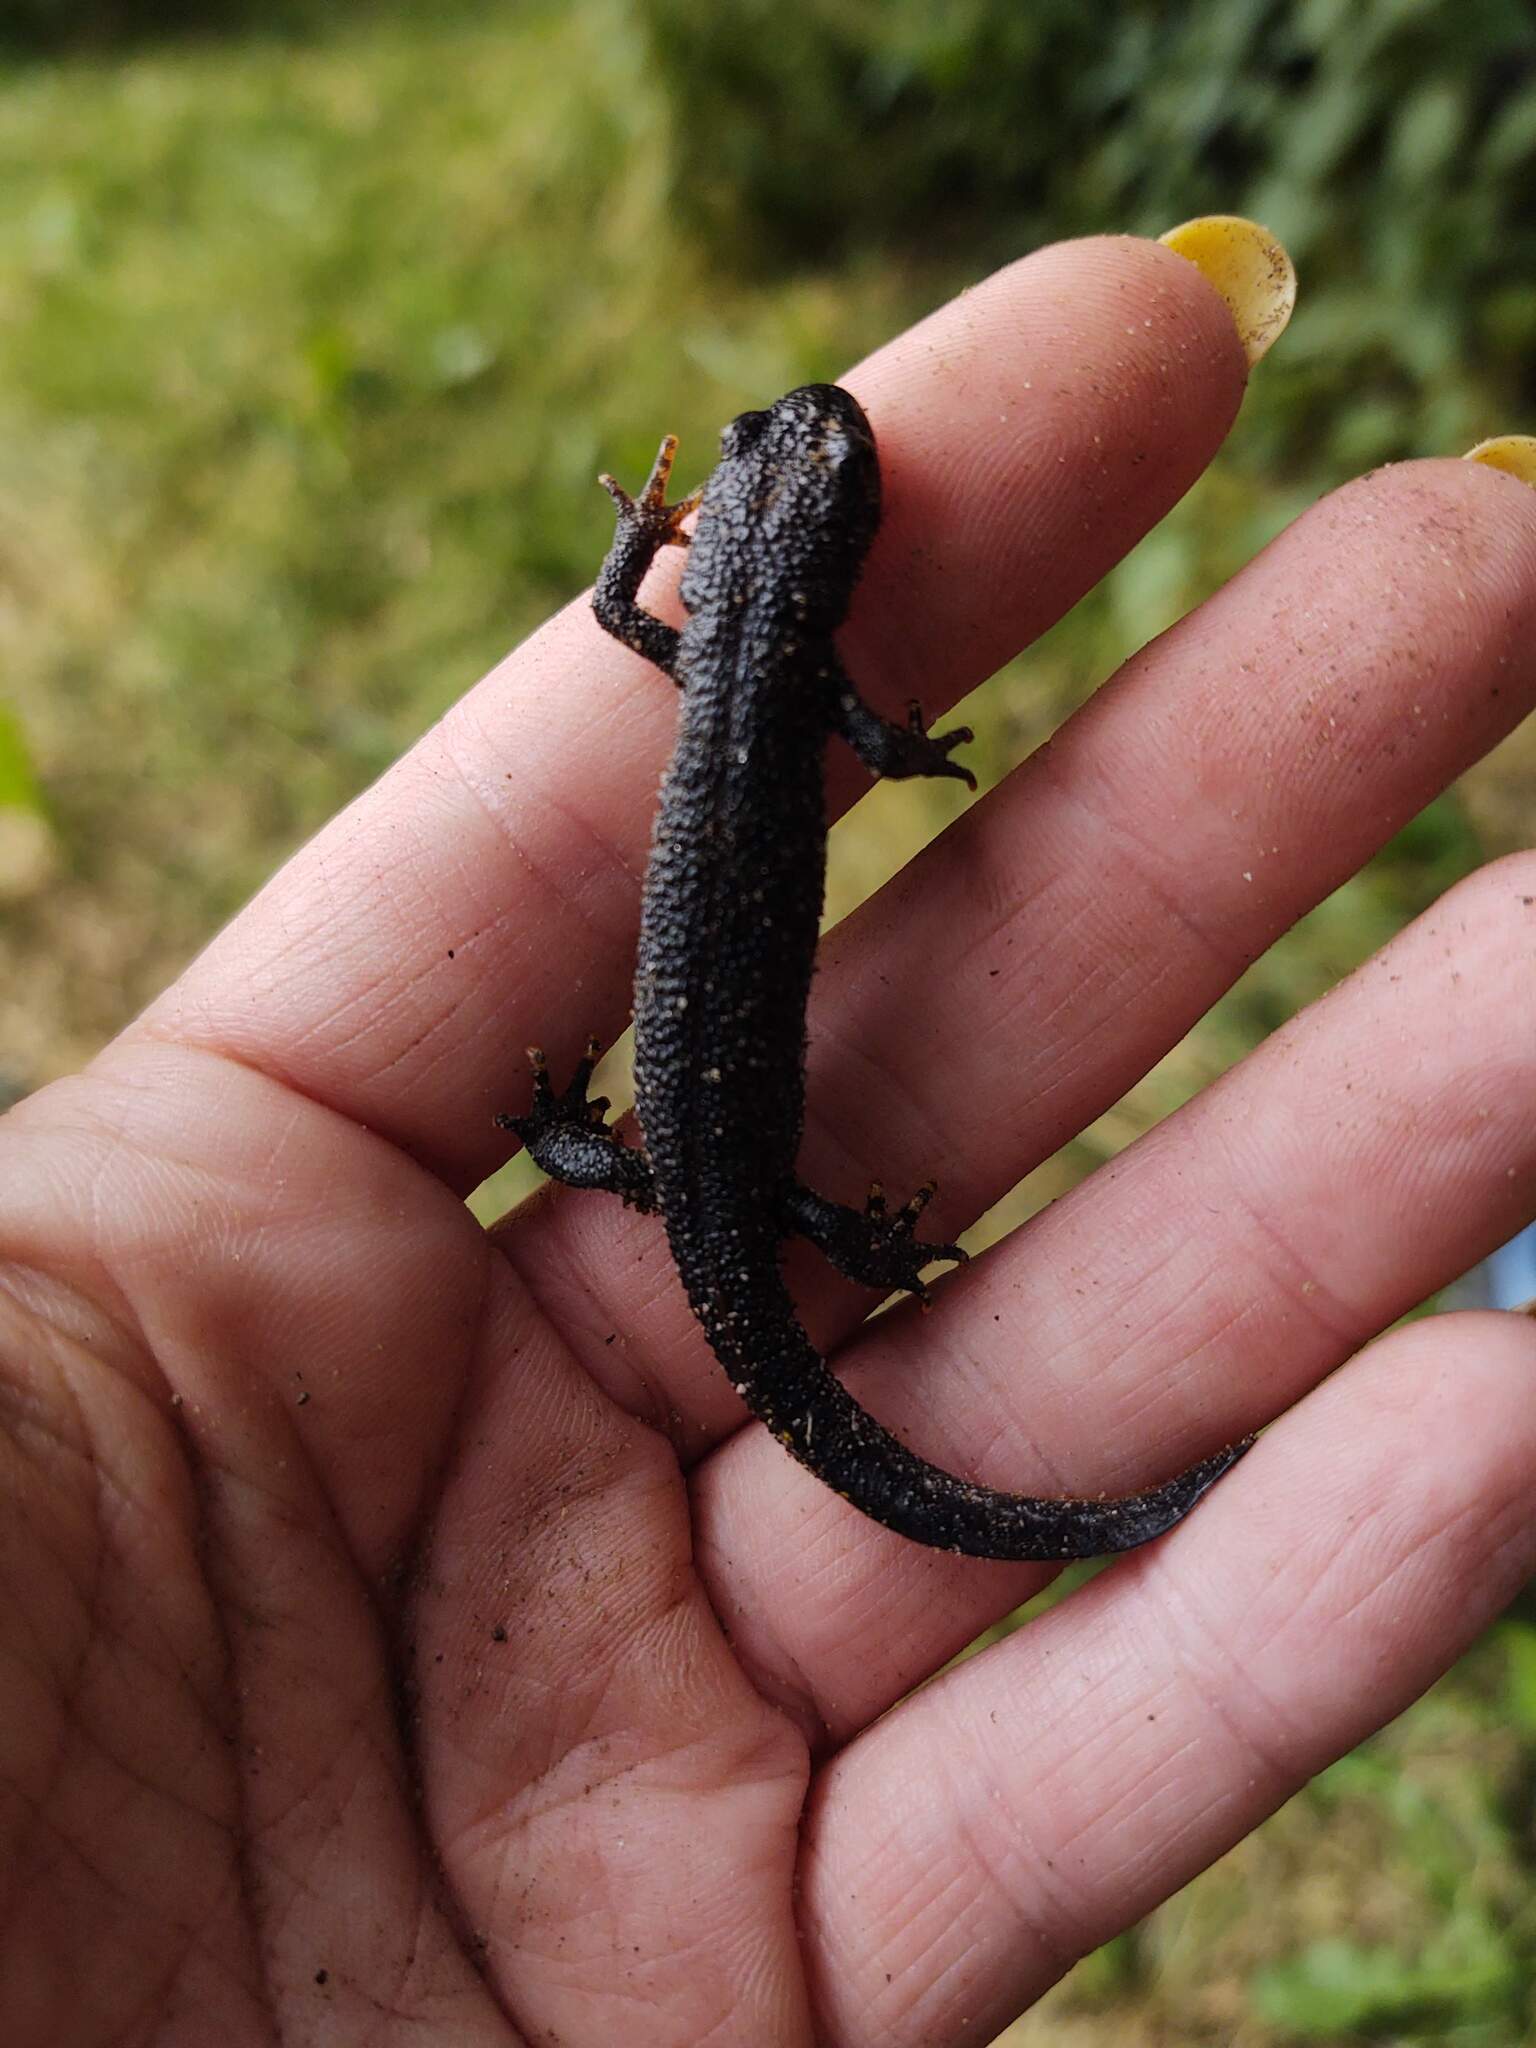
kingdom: Animalia
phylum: Chordata
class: Amphibia
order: Caudata
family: Salamandridae
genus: Triturus
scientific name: Triturus cristatus
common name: Crested newt
